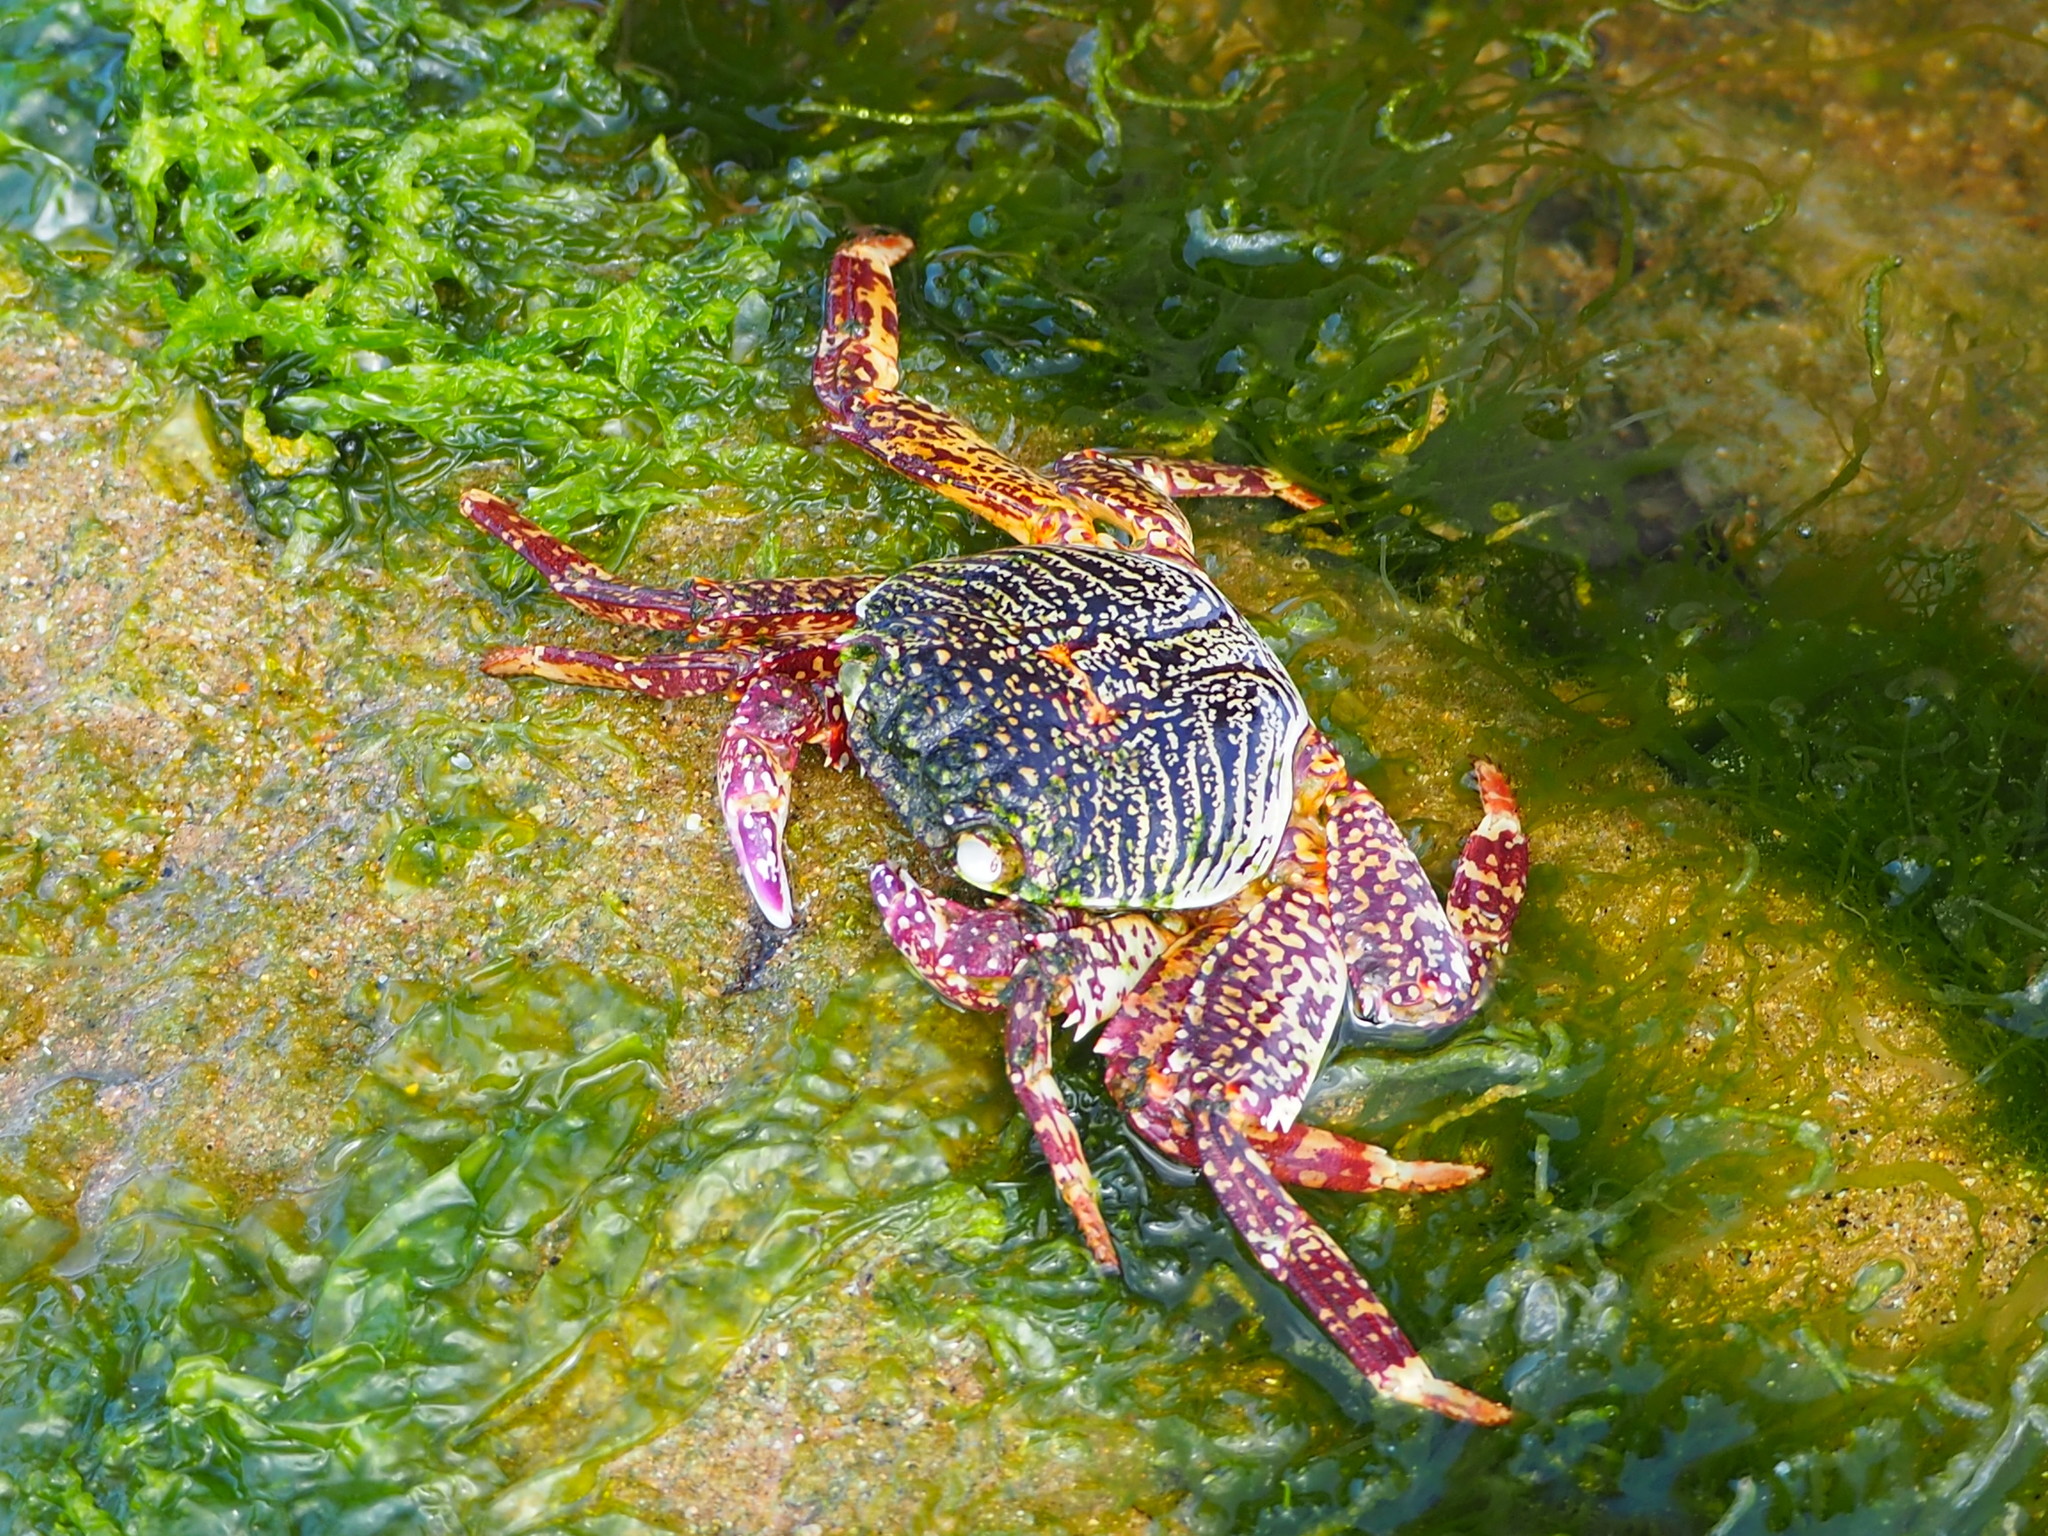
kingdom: Animalia
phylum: Arthropoda
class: Malacostraca
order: Decapoda
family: Grapsidae
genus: Grapsus
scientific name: Grapsus albolineatus
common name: Mottled lightfoot crab
